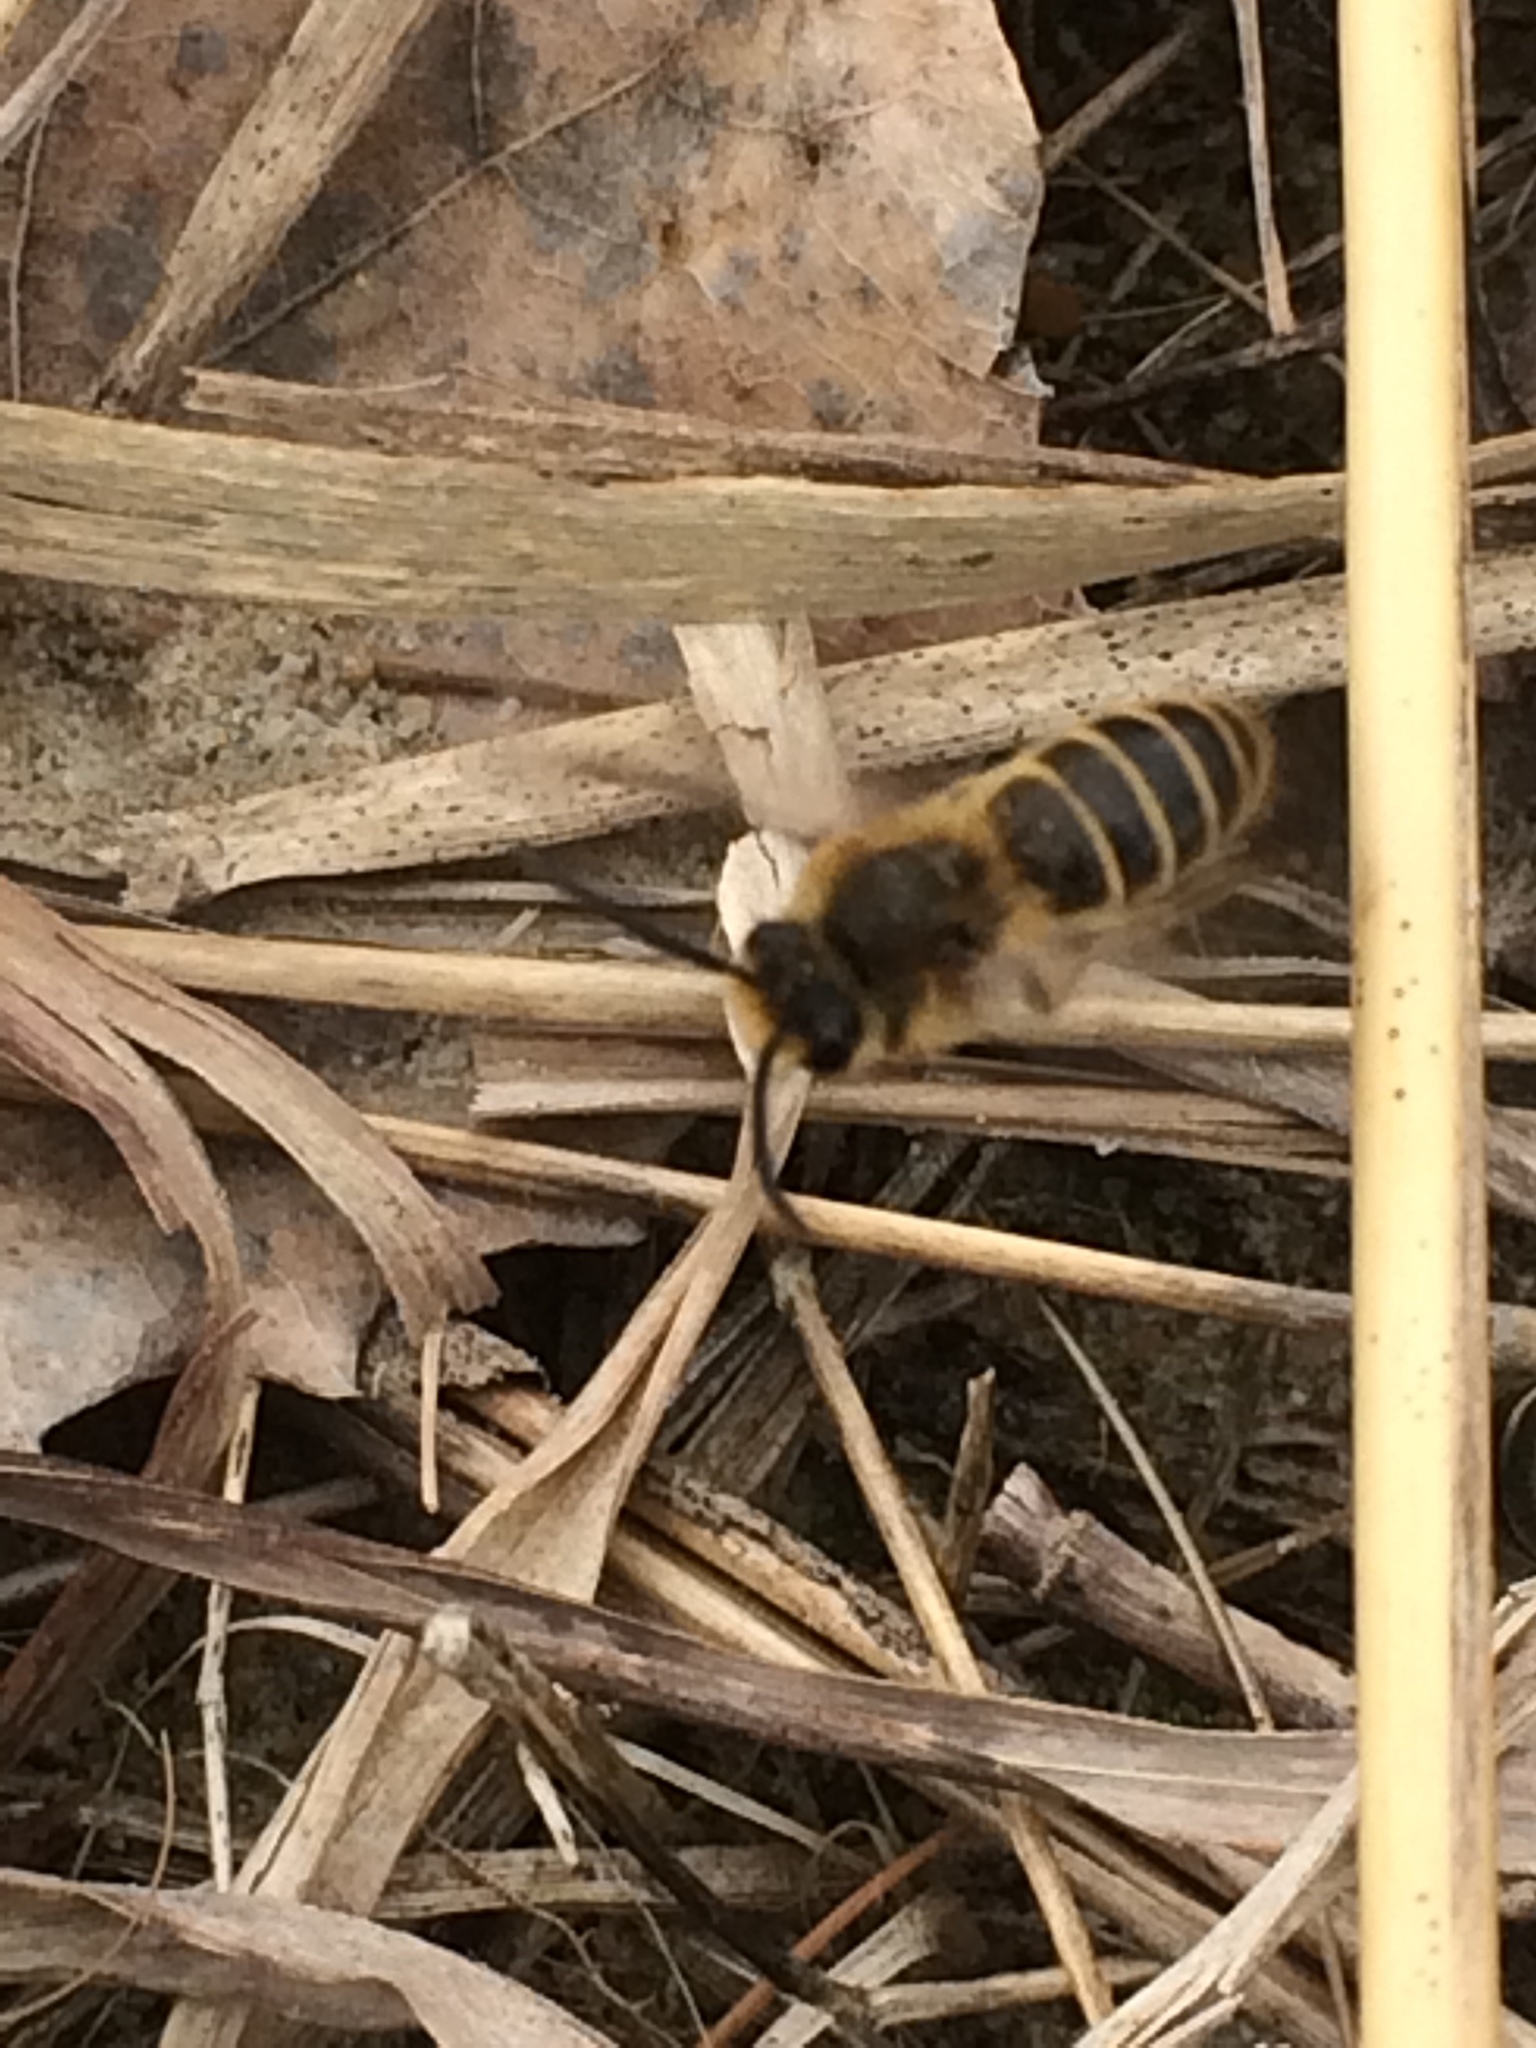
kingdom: Animalia
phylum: Arthropoda
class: Insecta
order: Hymenoptera
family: Colletidae
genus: Colletes
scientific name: Colletes inaequalis
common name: Unequal cellophane bee
